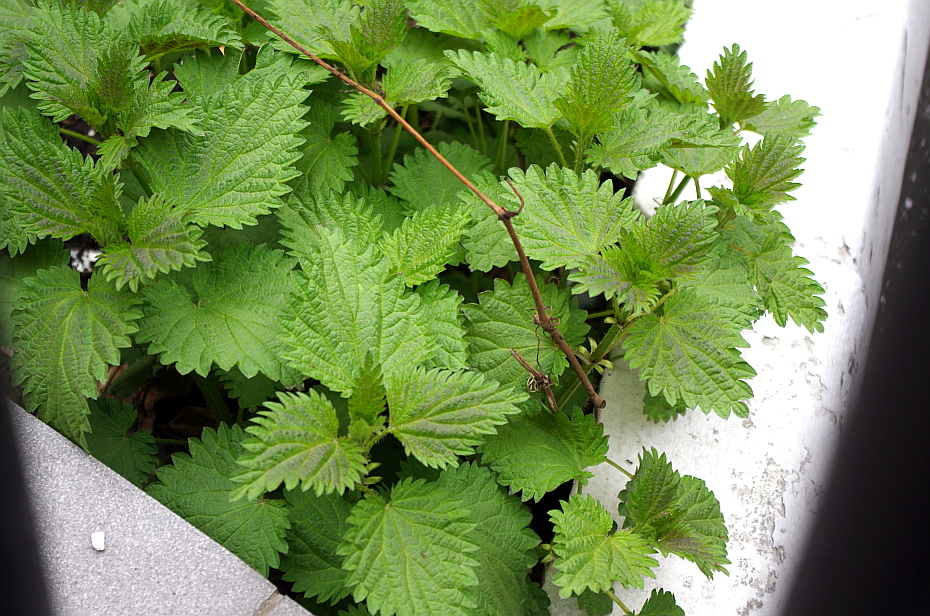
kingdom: Plantae
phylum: Tracheophyta
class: Magnoliopsida
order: Rosales
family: Urticaceae
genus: Urtica
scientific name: Urtica dioica
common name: Common nettle
